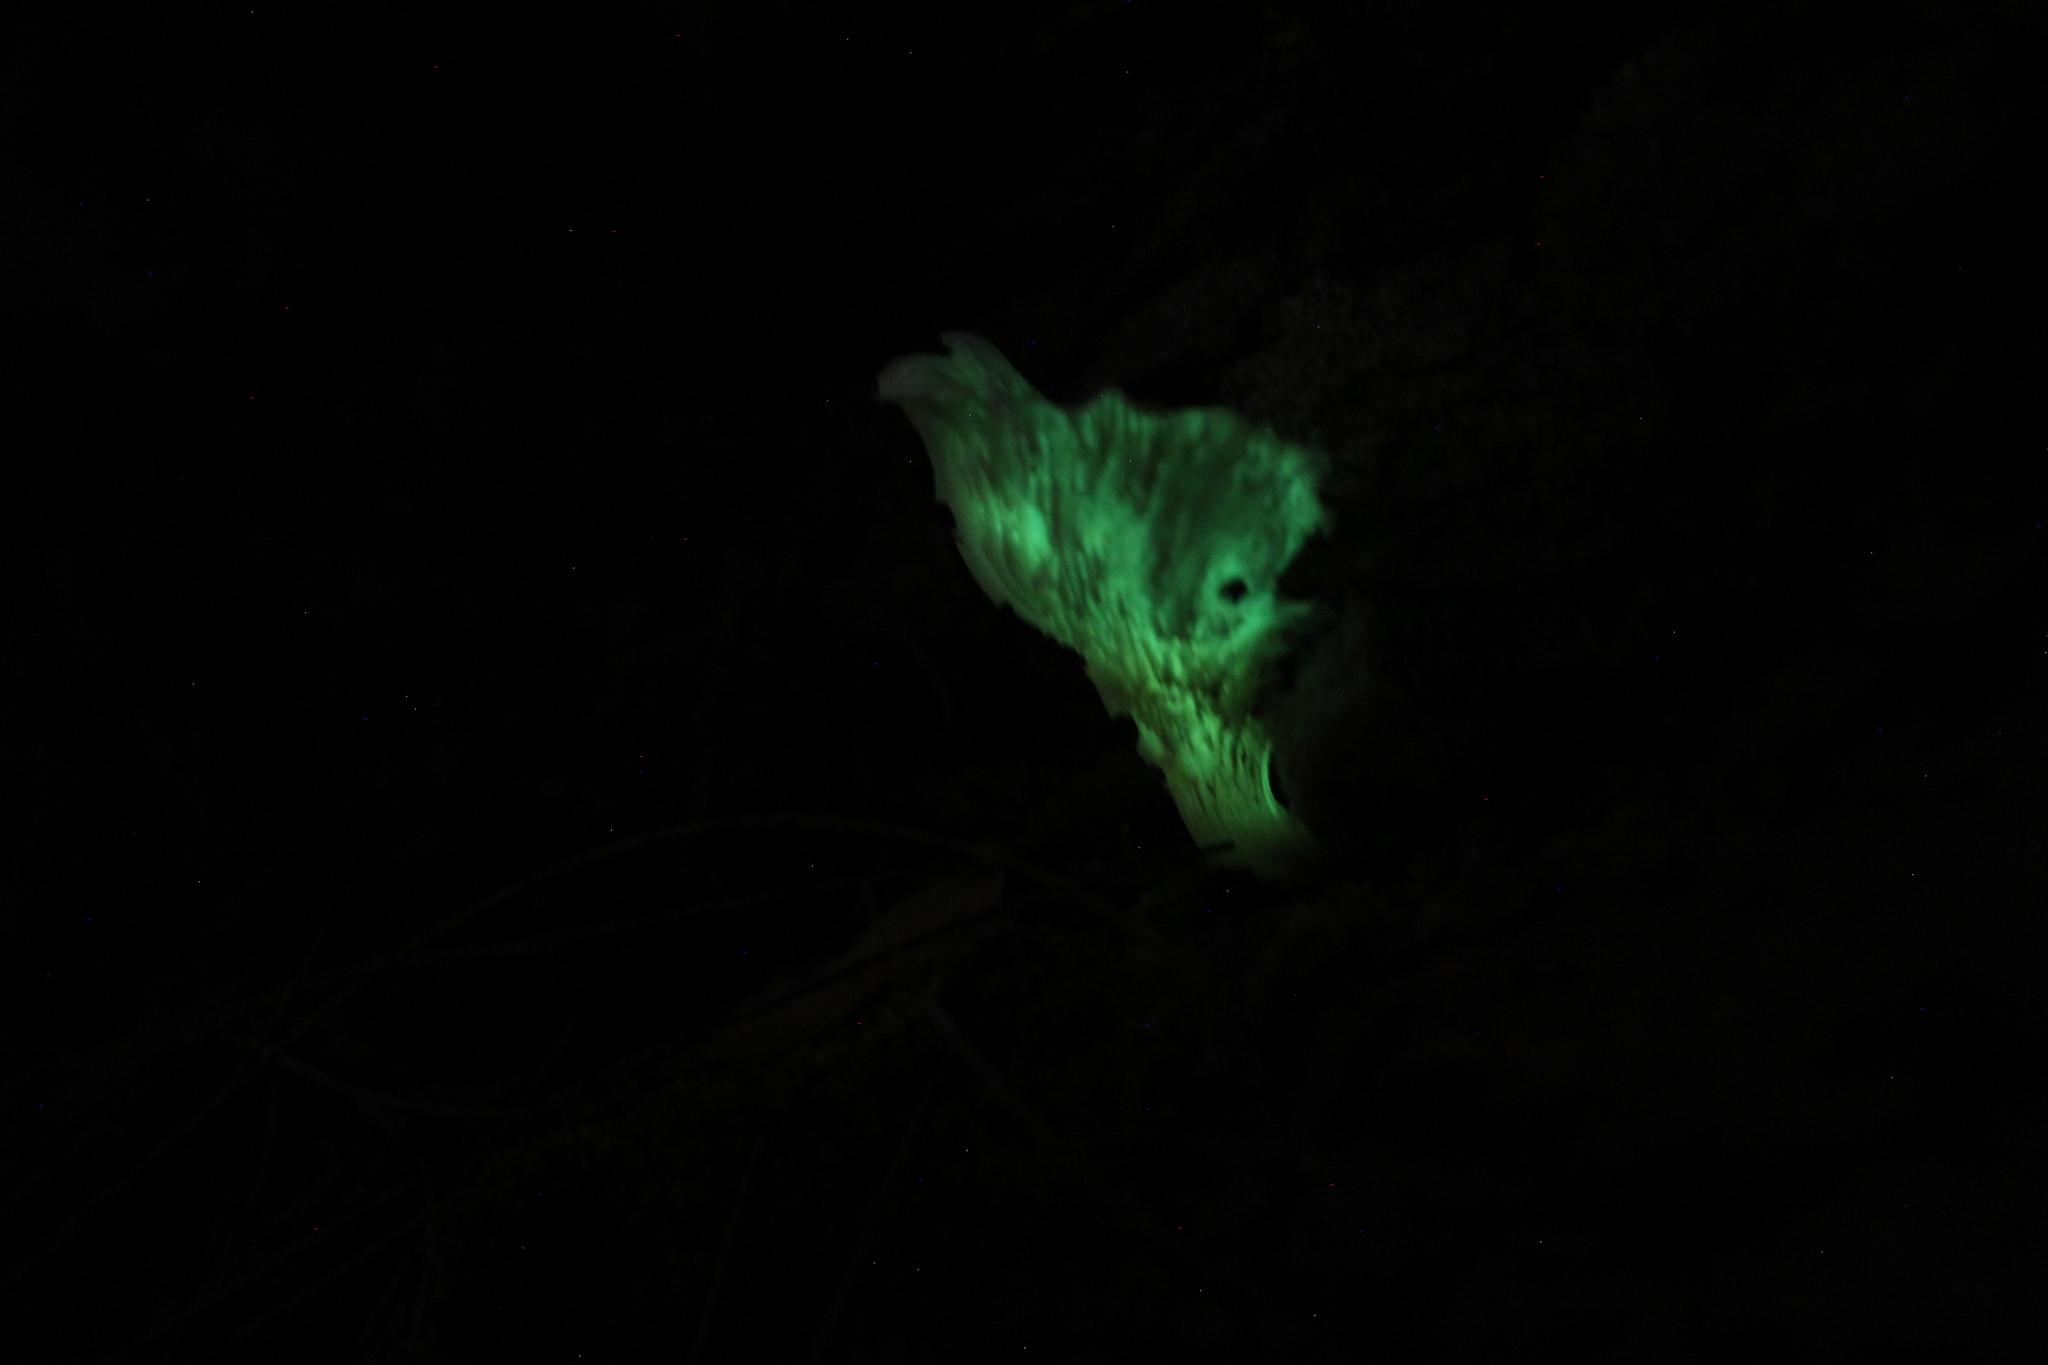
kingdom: Fungi
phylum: Basidiomycota
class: Agaricomycetes
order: Agaricales
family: Omphalotaceae
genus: Omphalotus
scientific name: Omphalotus nidiformis
